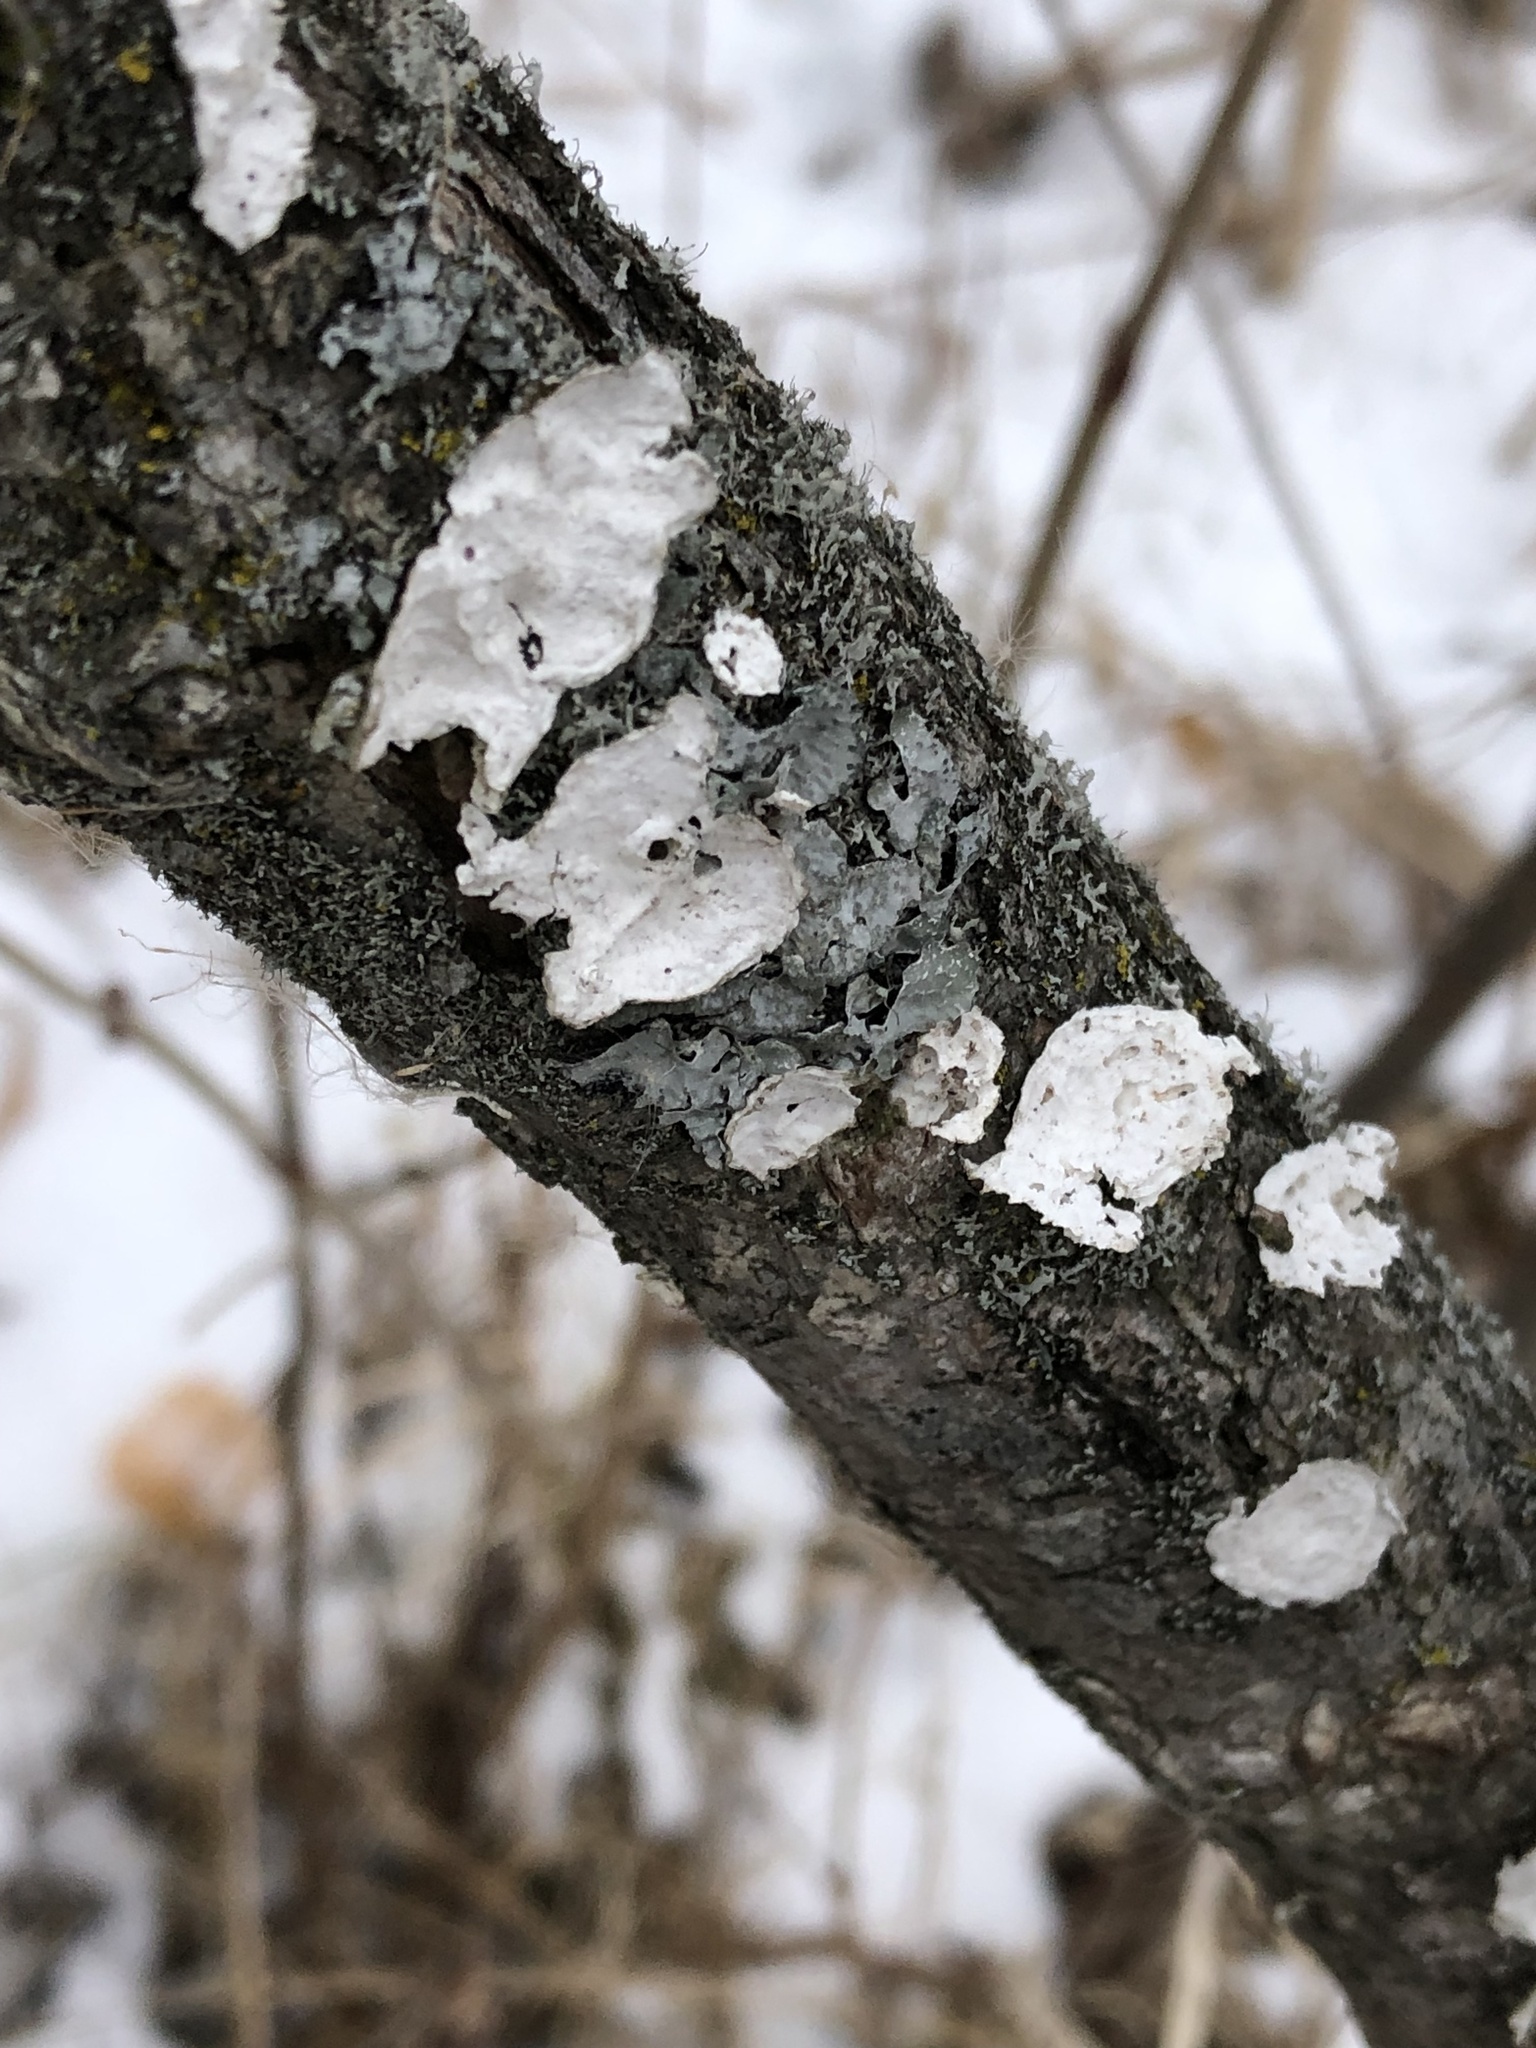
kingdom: Fungi
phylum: Basidiomycota
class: Agaricomycetes
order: Polyporales
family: Polyporaceae
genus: Poronidulus
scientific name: Poronidulus conchifer
